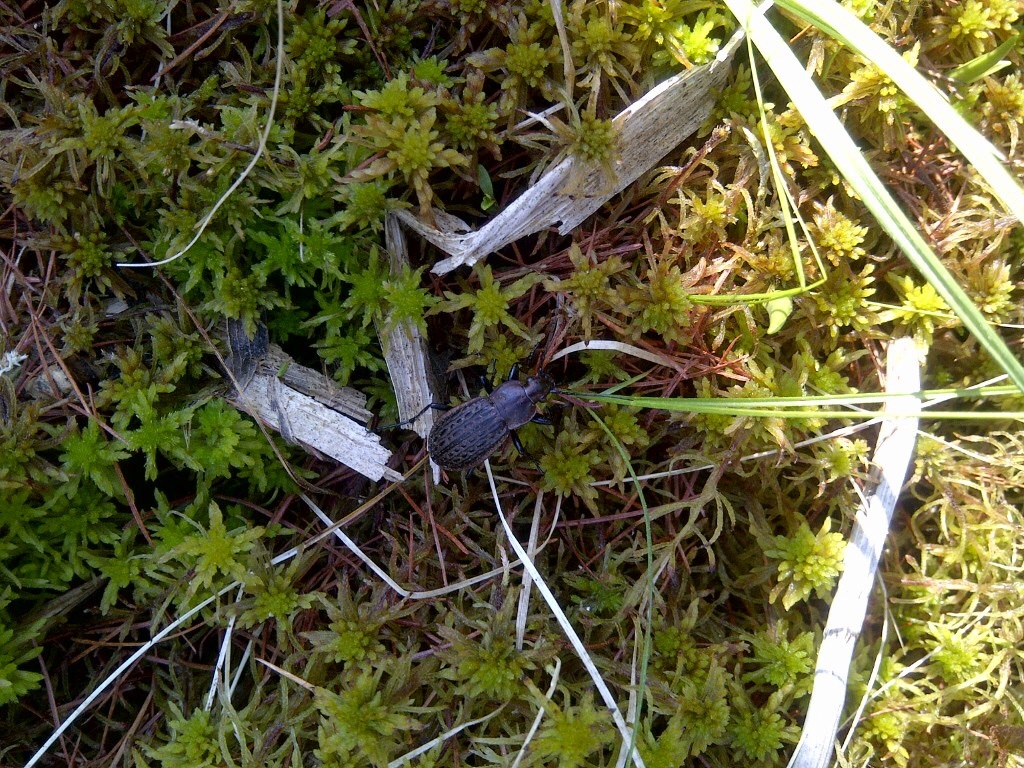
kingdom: Animalia
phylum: Arthropoda
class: Insecta
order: Coleoptera
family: Carabidae
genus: Carabus
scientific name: Carabus maeander
